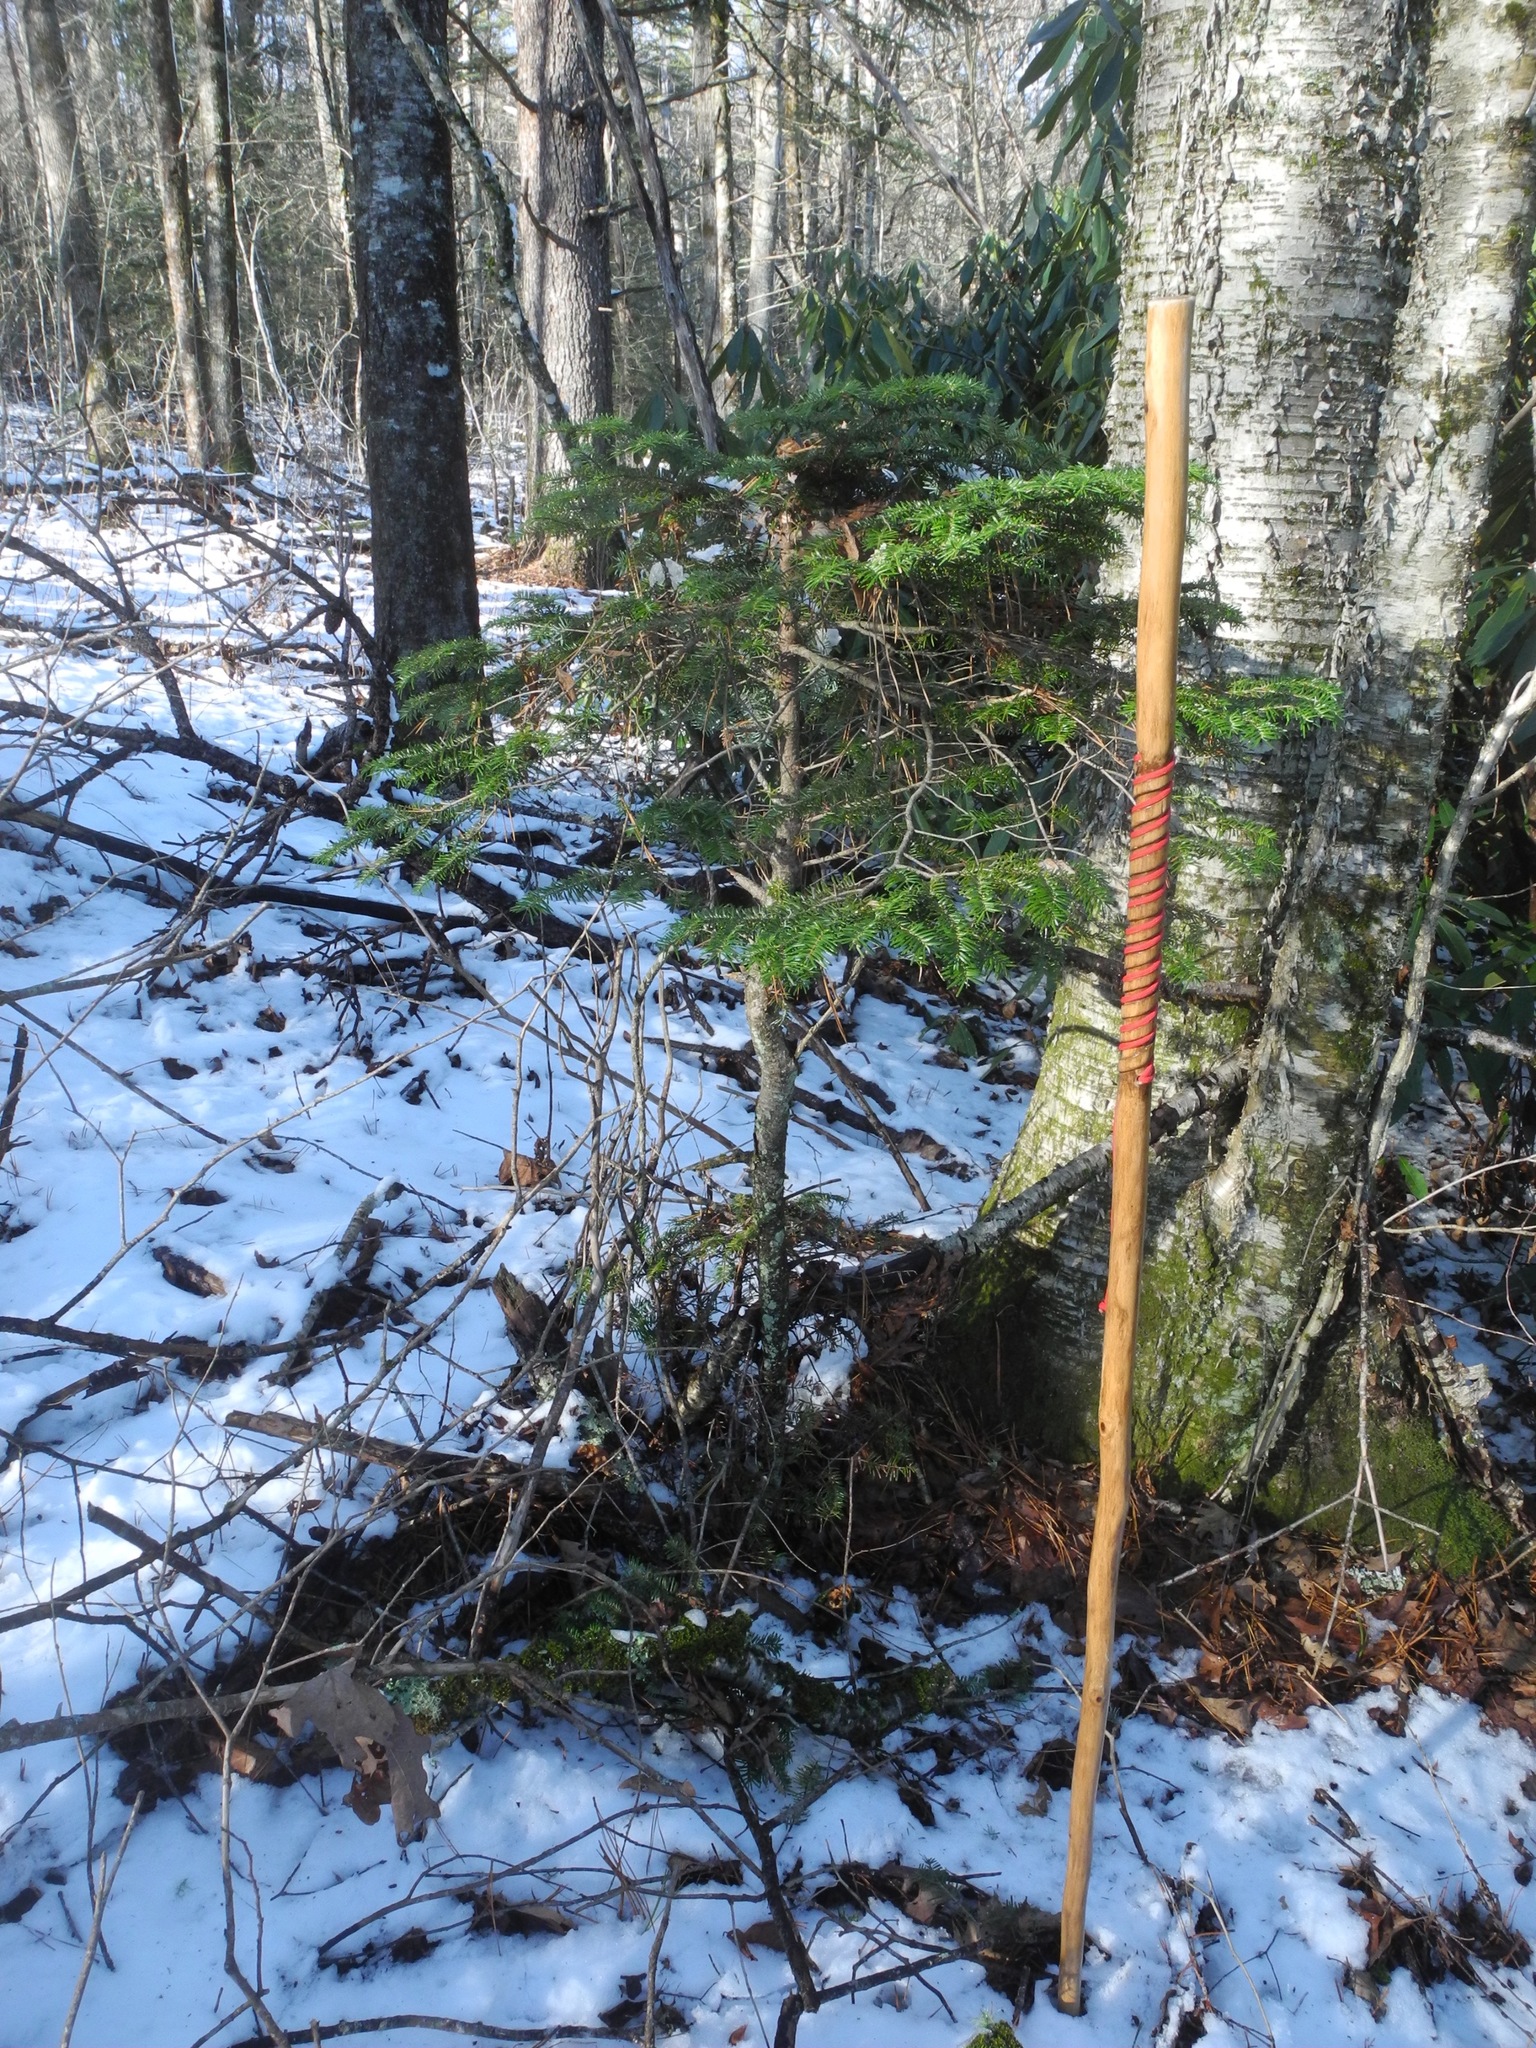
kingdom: Plantae
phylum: Tracheophyta
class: Pinopsida
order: Pinales
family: Pinaceae
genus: Abies
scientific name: Abies fraseri
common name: Fraser fir
